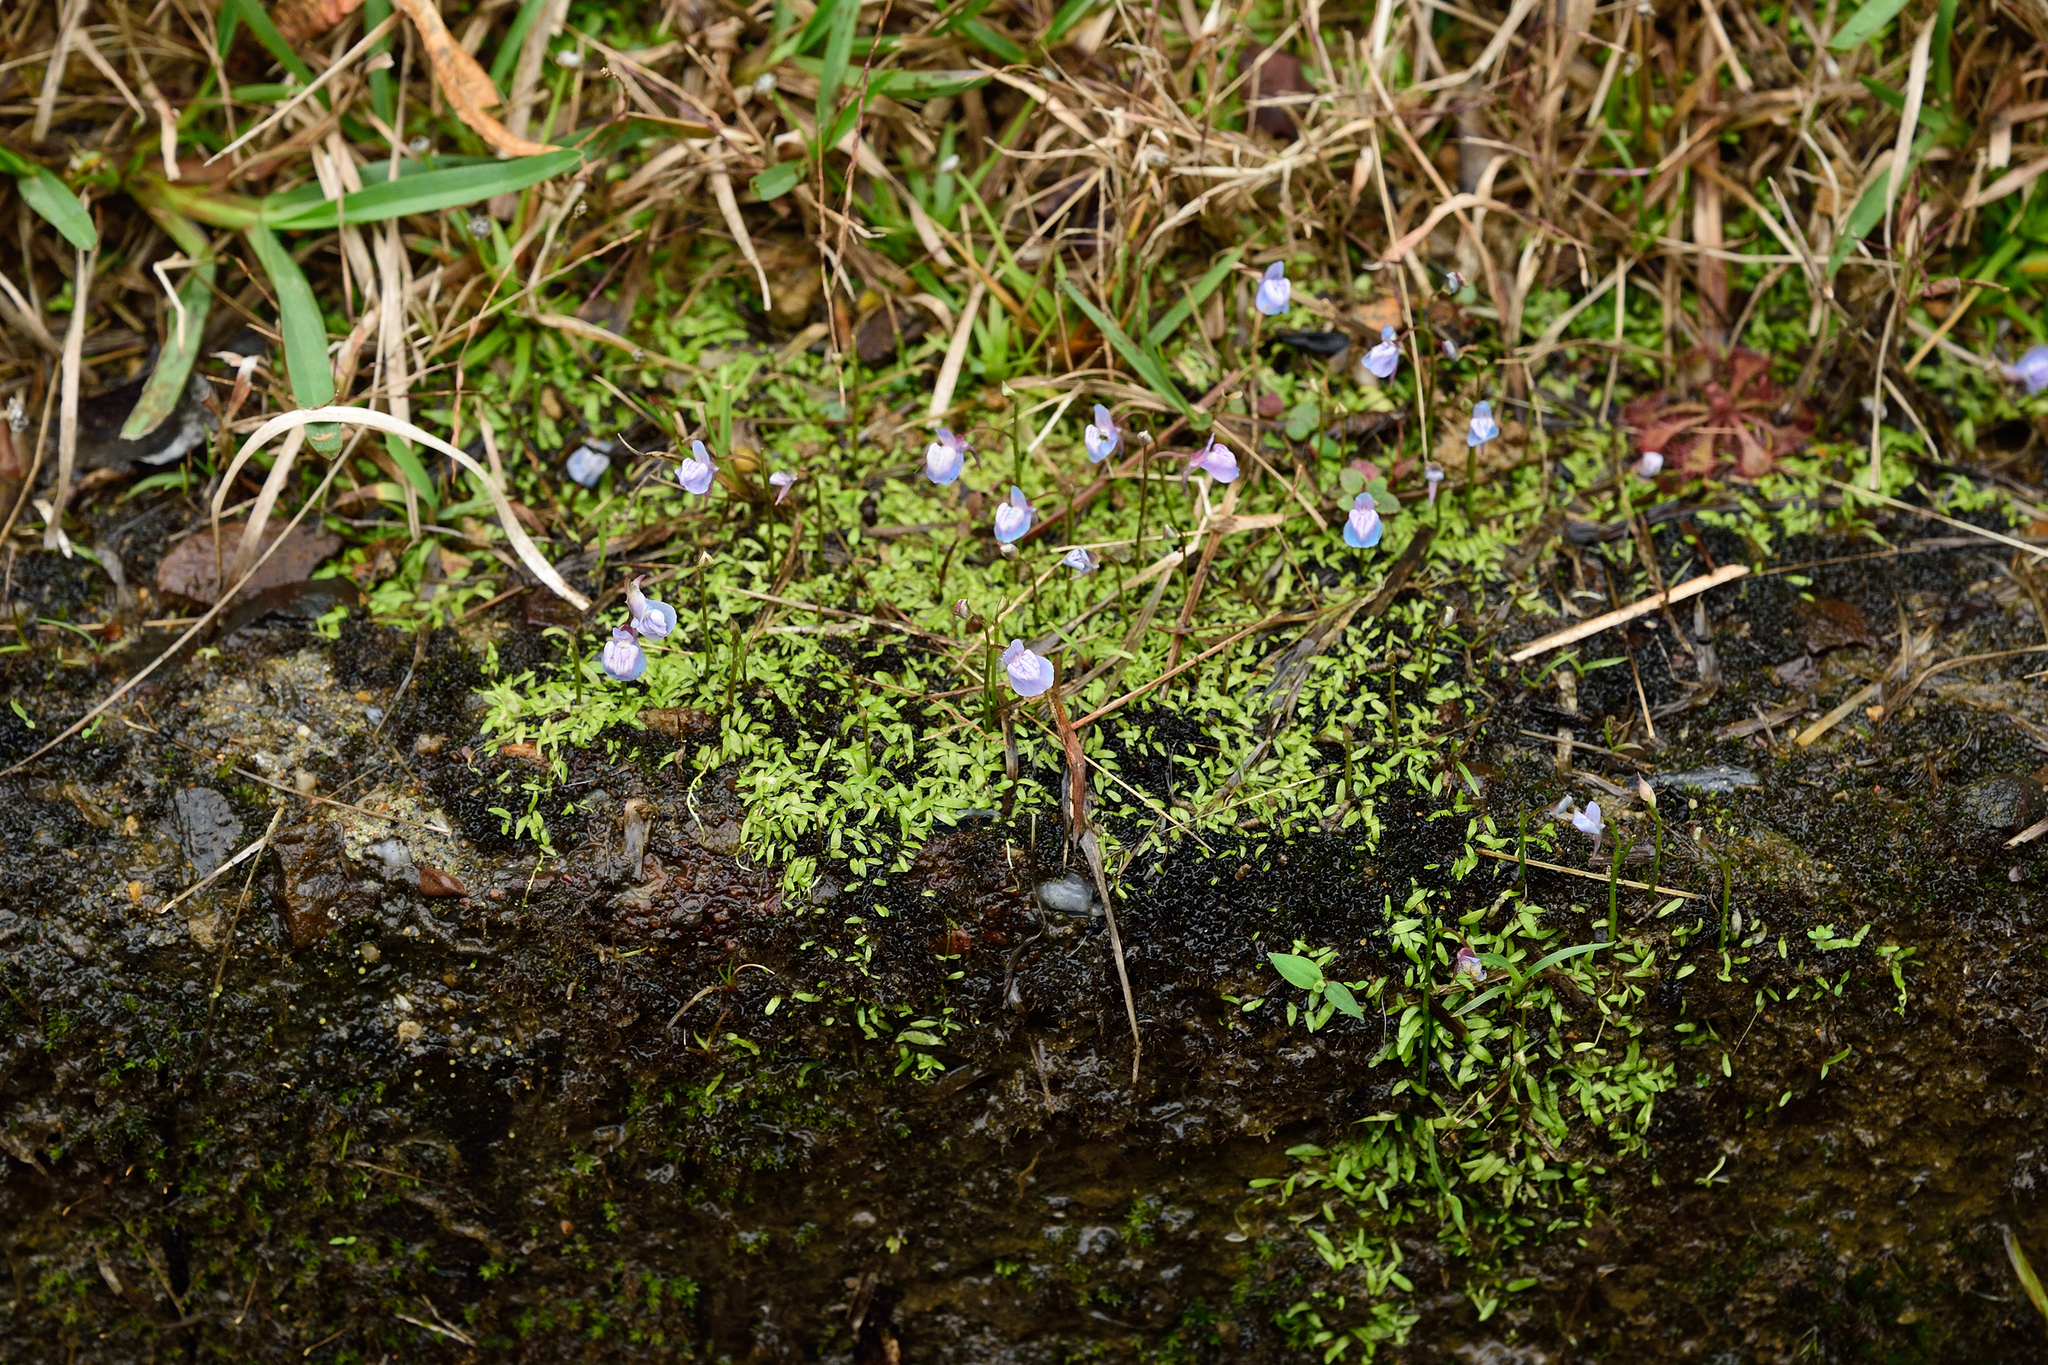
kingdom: Plantae
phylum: Tracheophyta
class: Magnoliopsida
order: Lamiales
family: Lentibulariaceae
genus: Utricularia
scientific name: Utricularia graminifolia
